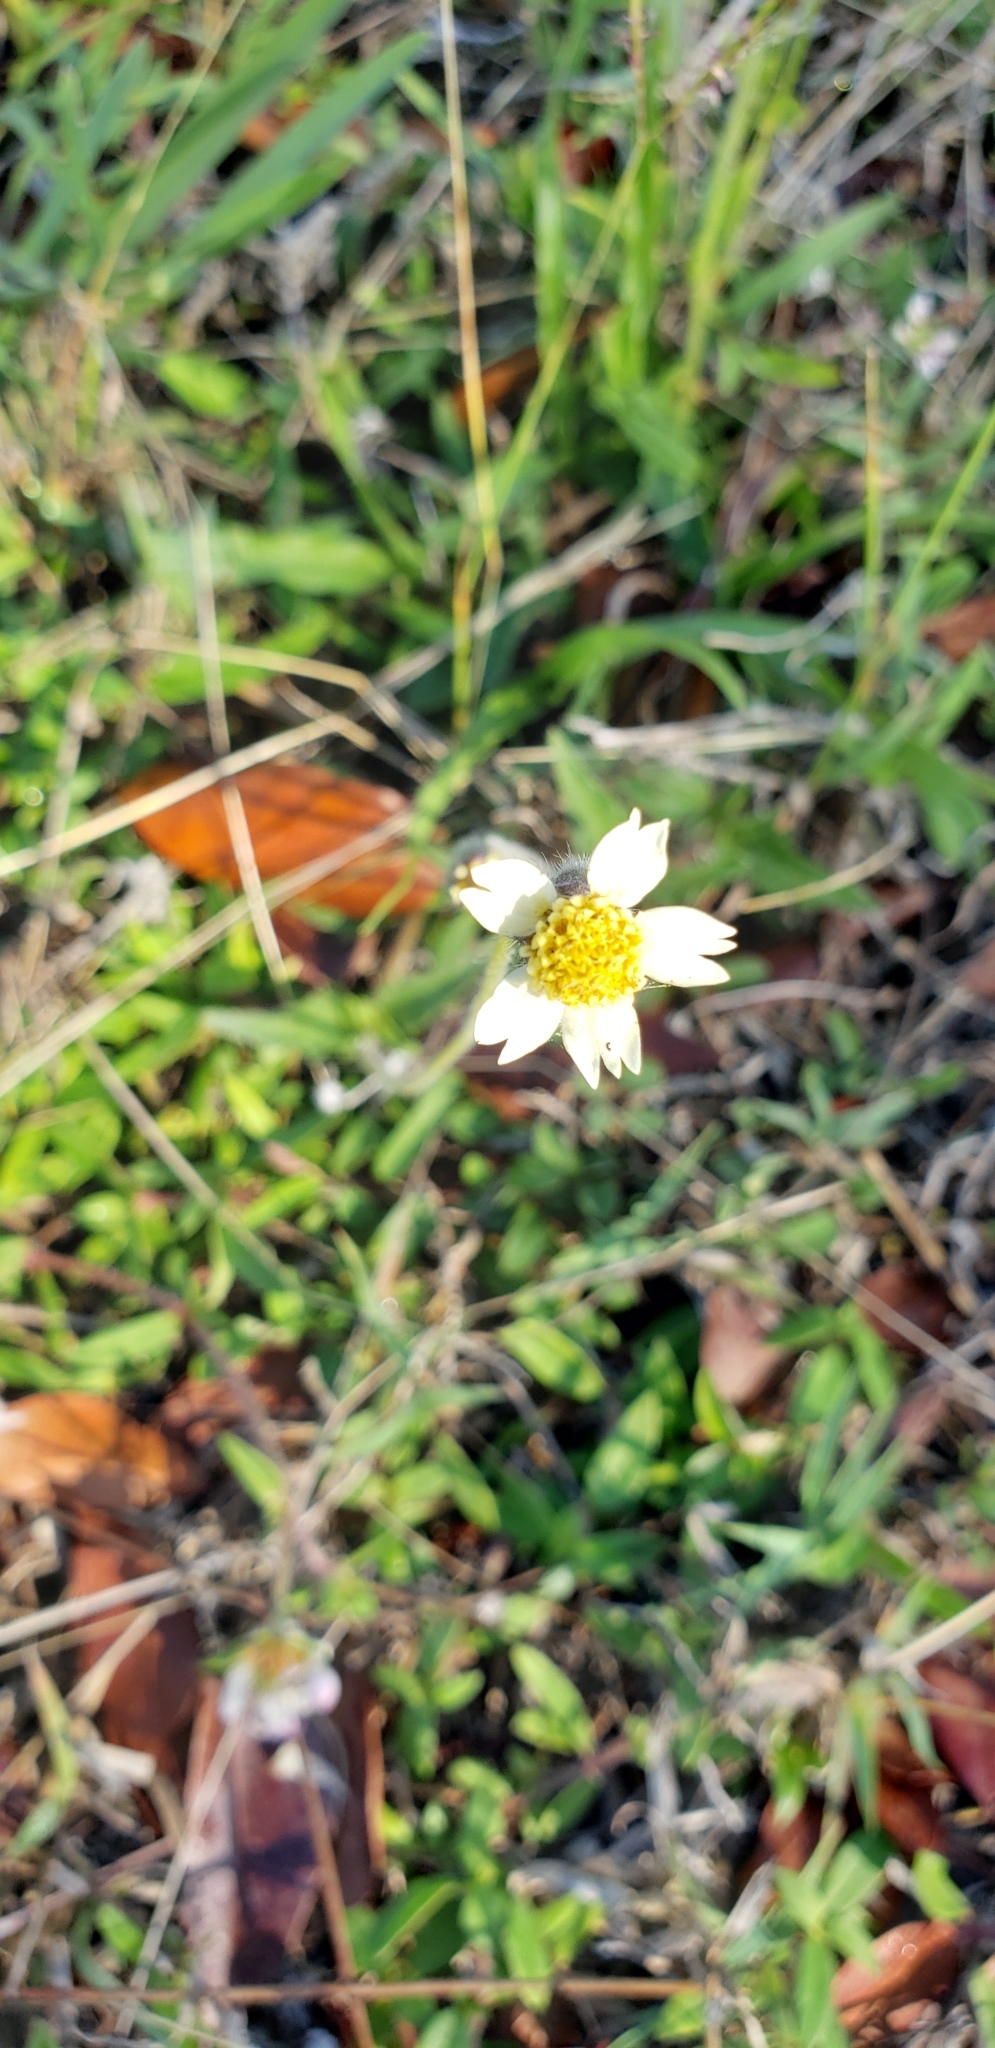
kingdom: Plantae
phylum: Tracheophyta
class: Magnoliopsida
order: Asterales
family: Asteraceae
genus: Tridax
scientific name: Tridax procumbens
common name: Coatbuttons
